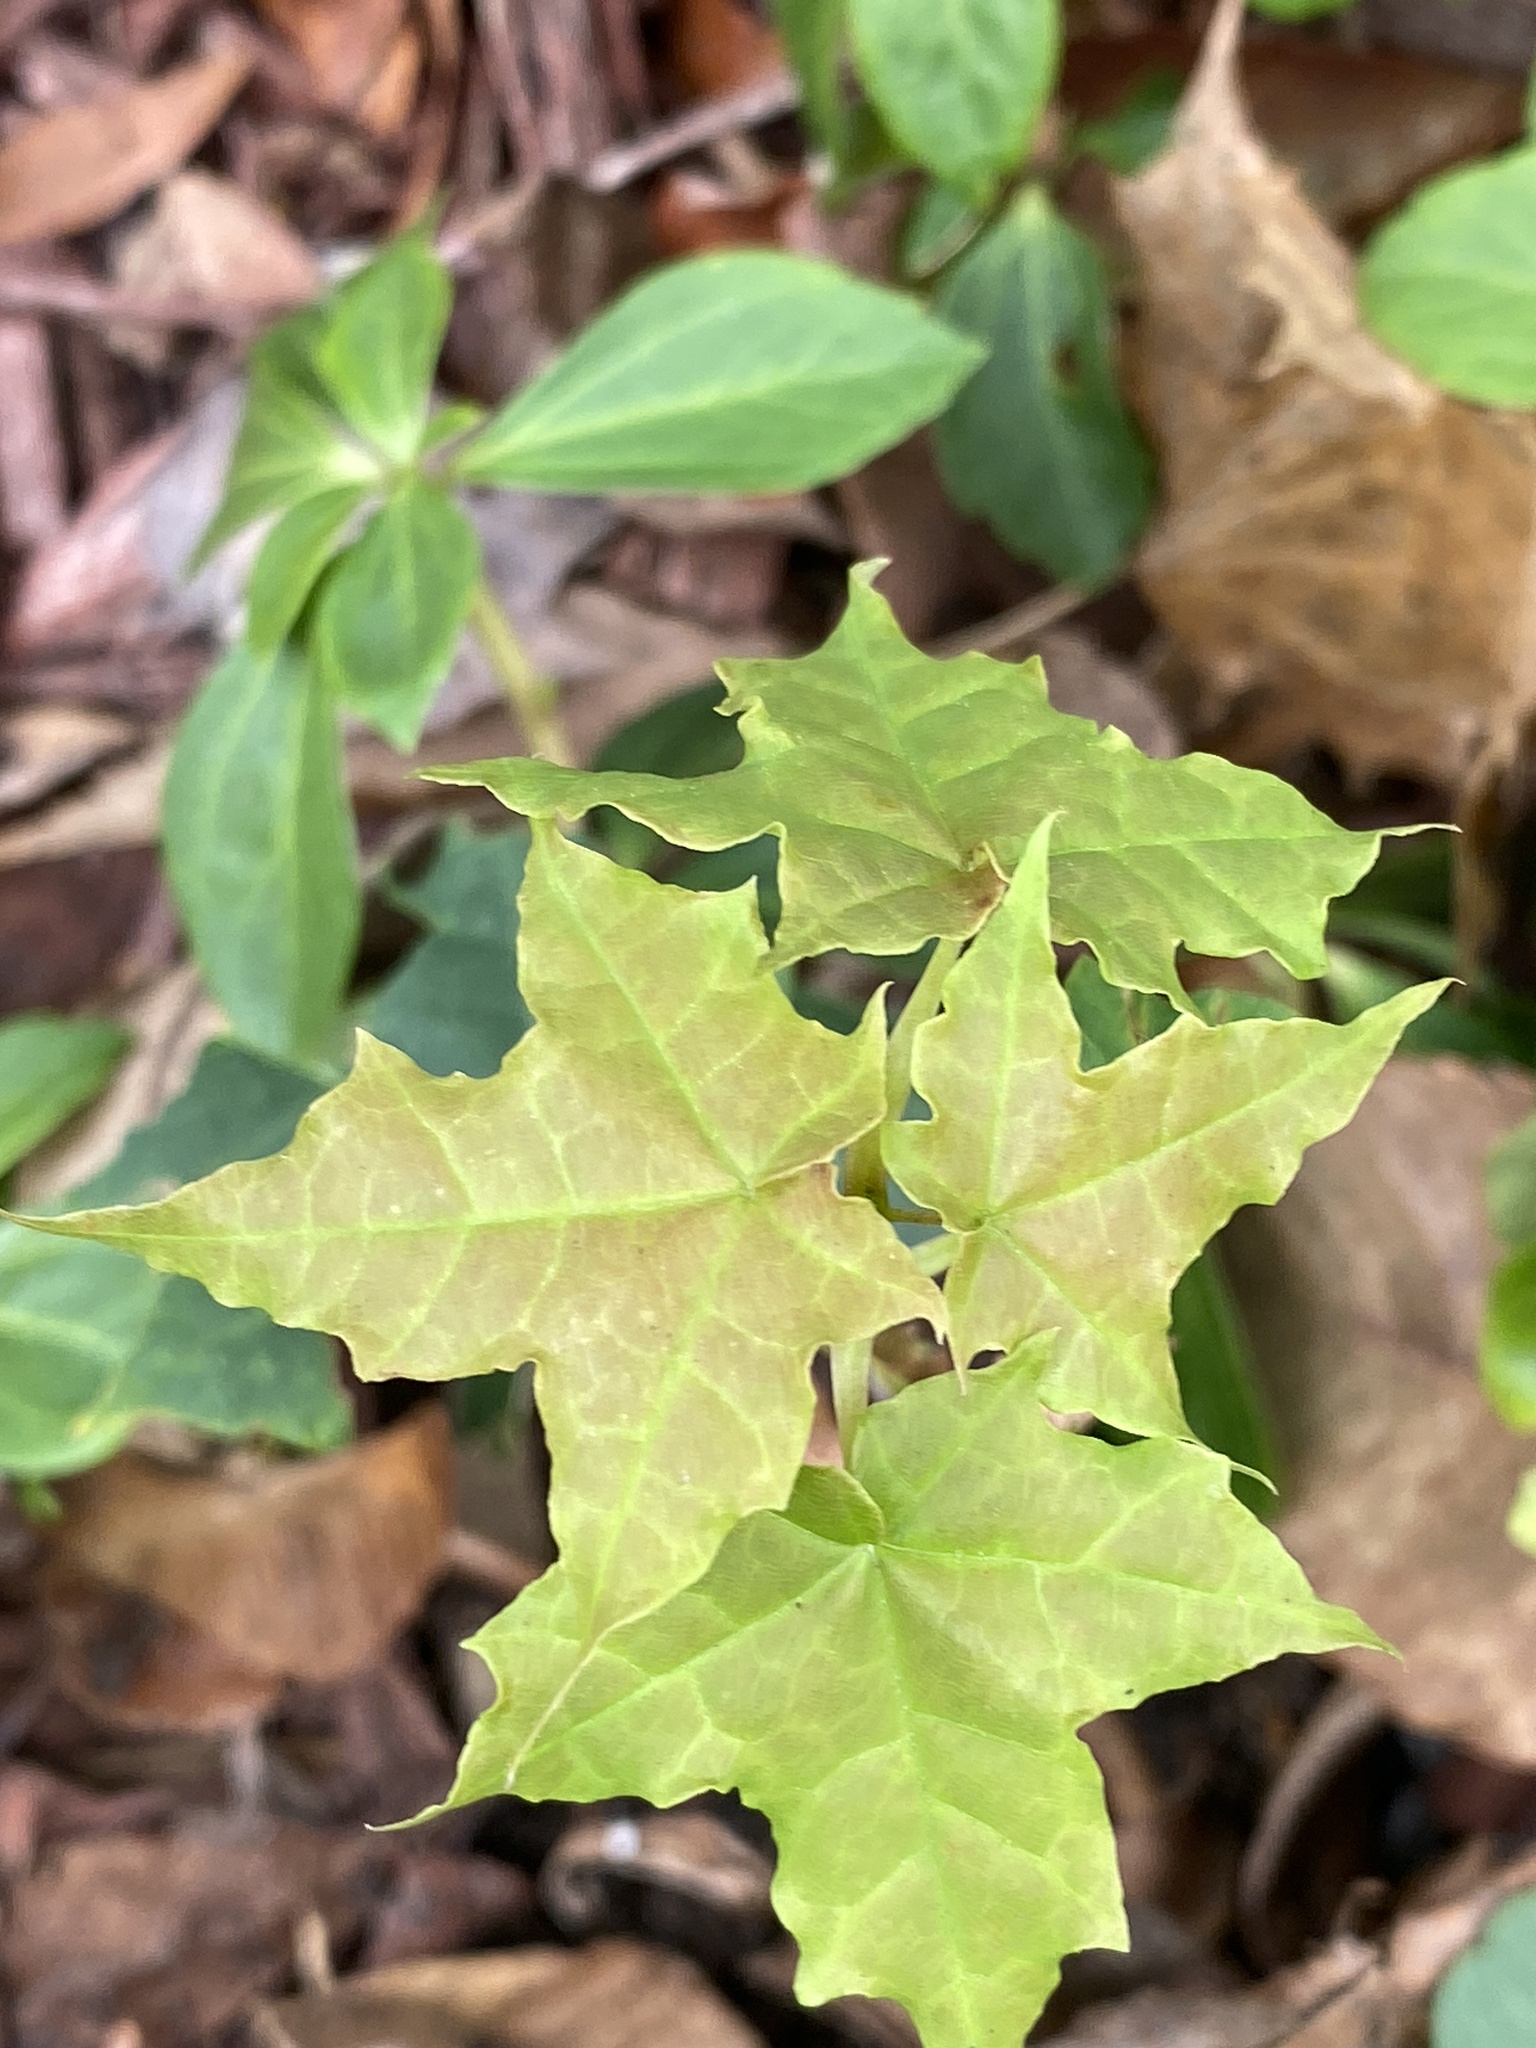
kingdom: Plantae
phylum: Tracheophyta
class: Magnoliopsida
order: Sapindales
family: Sapindaceae
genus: Acer
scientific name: Acer platanoides
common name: Norway maple
